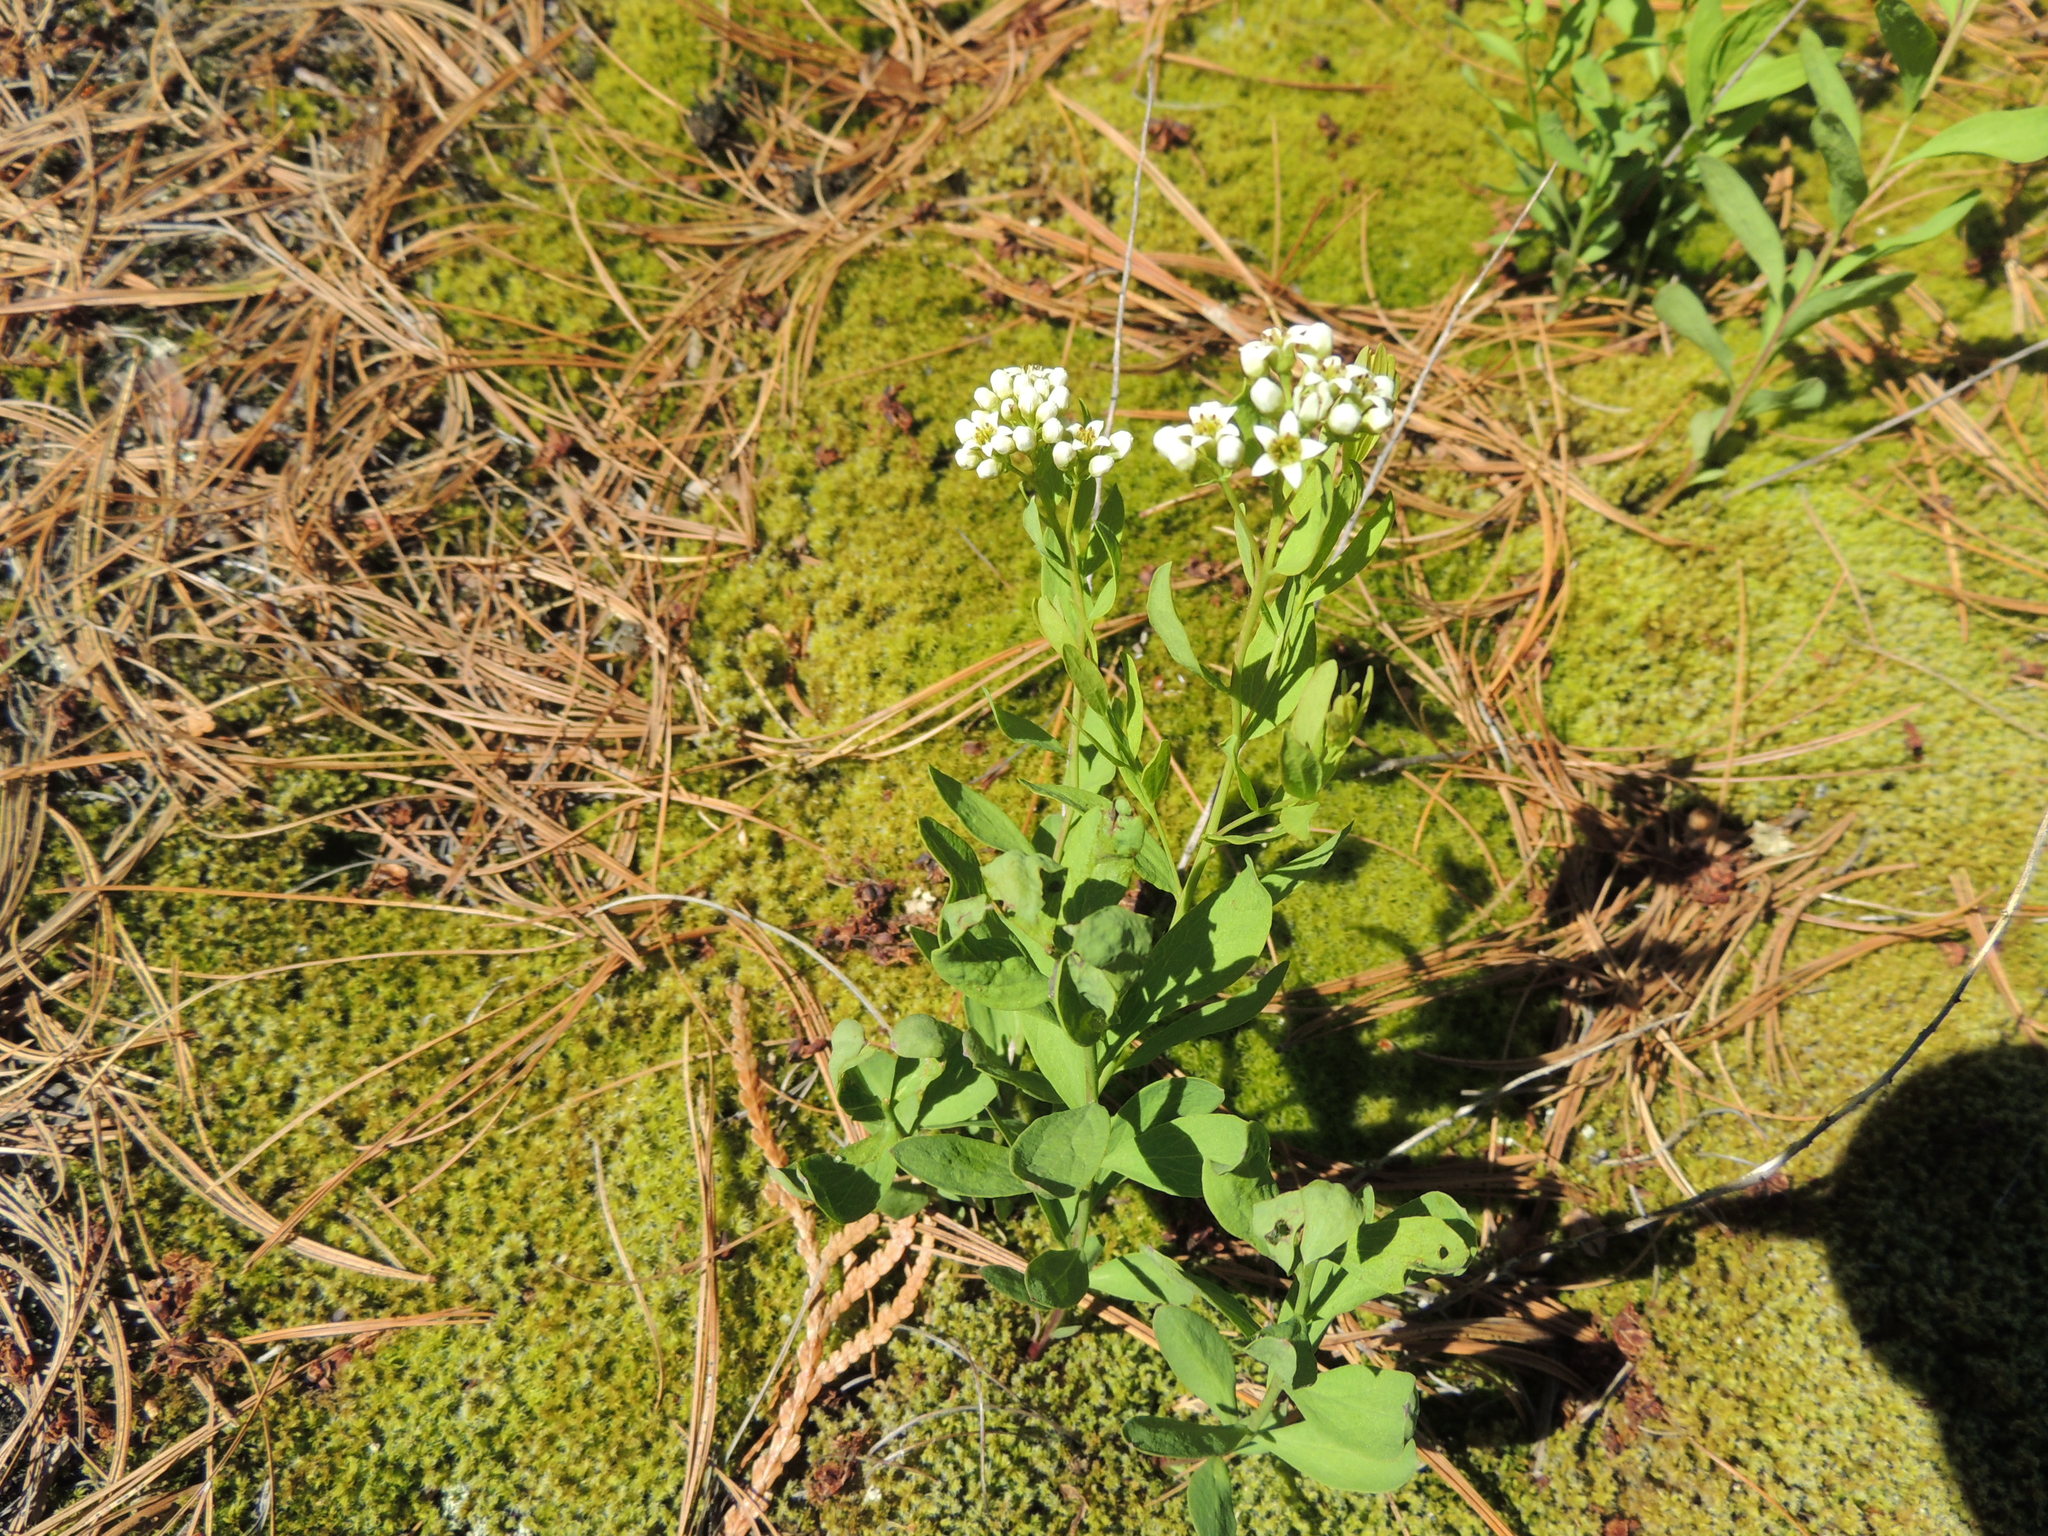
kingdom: Plantae
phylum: Tracheophyta
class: Magnoliopsida
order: Santalales
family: Comandraceae
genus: Comandra
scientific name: Comandra umbellata
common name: Bastard toadflax
